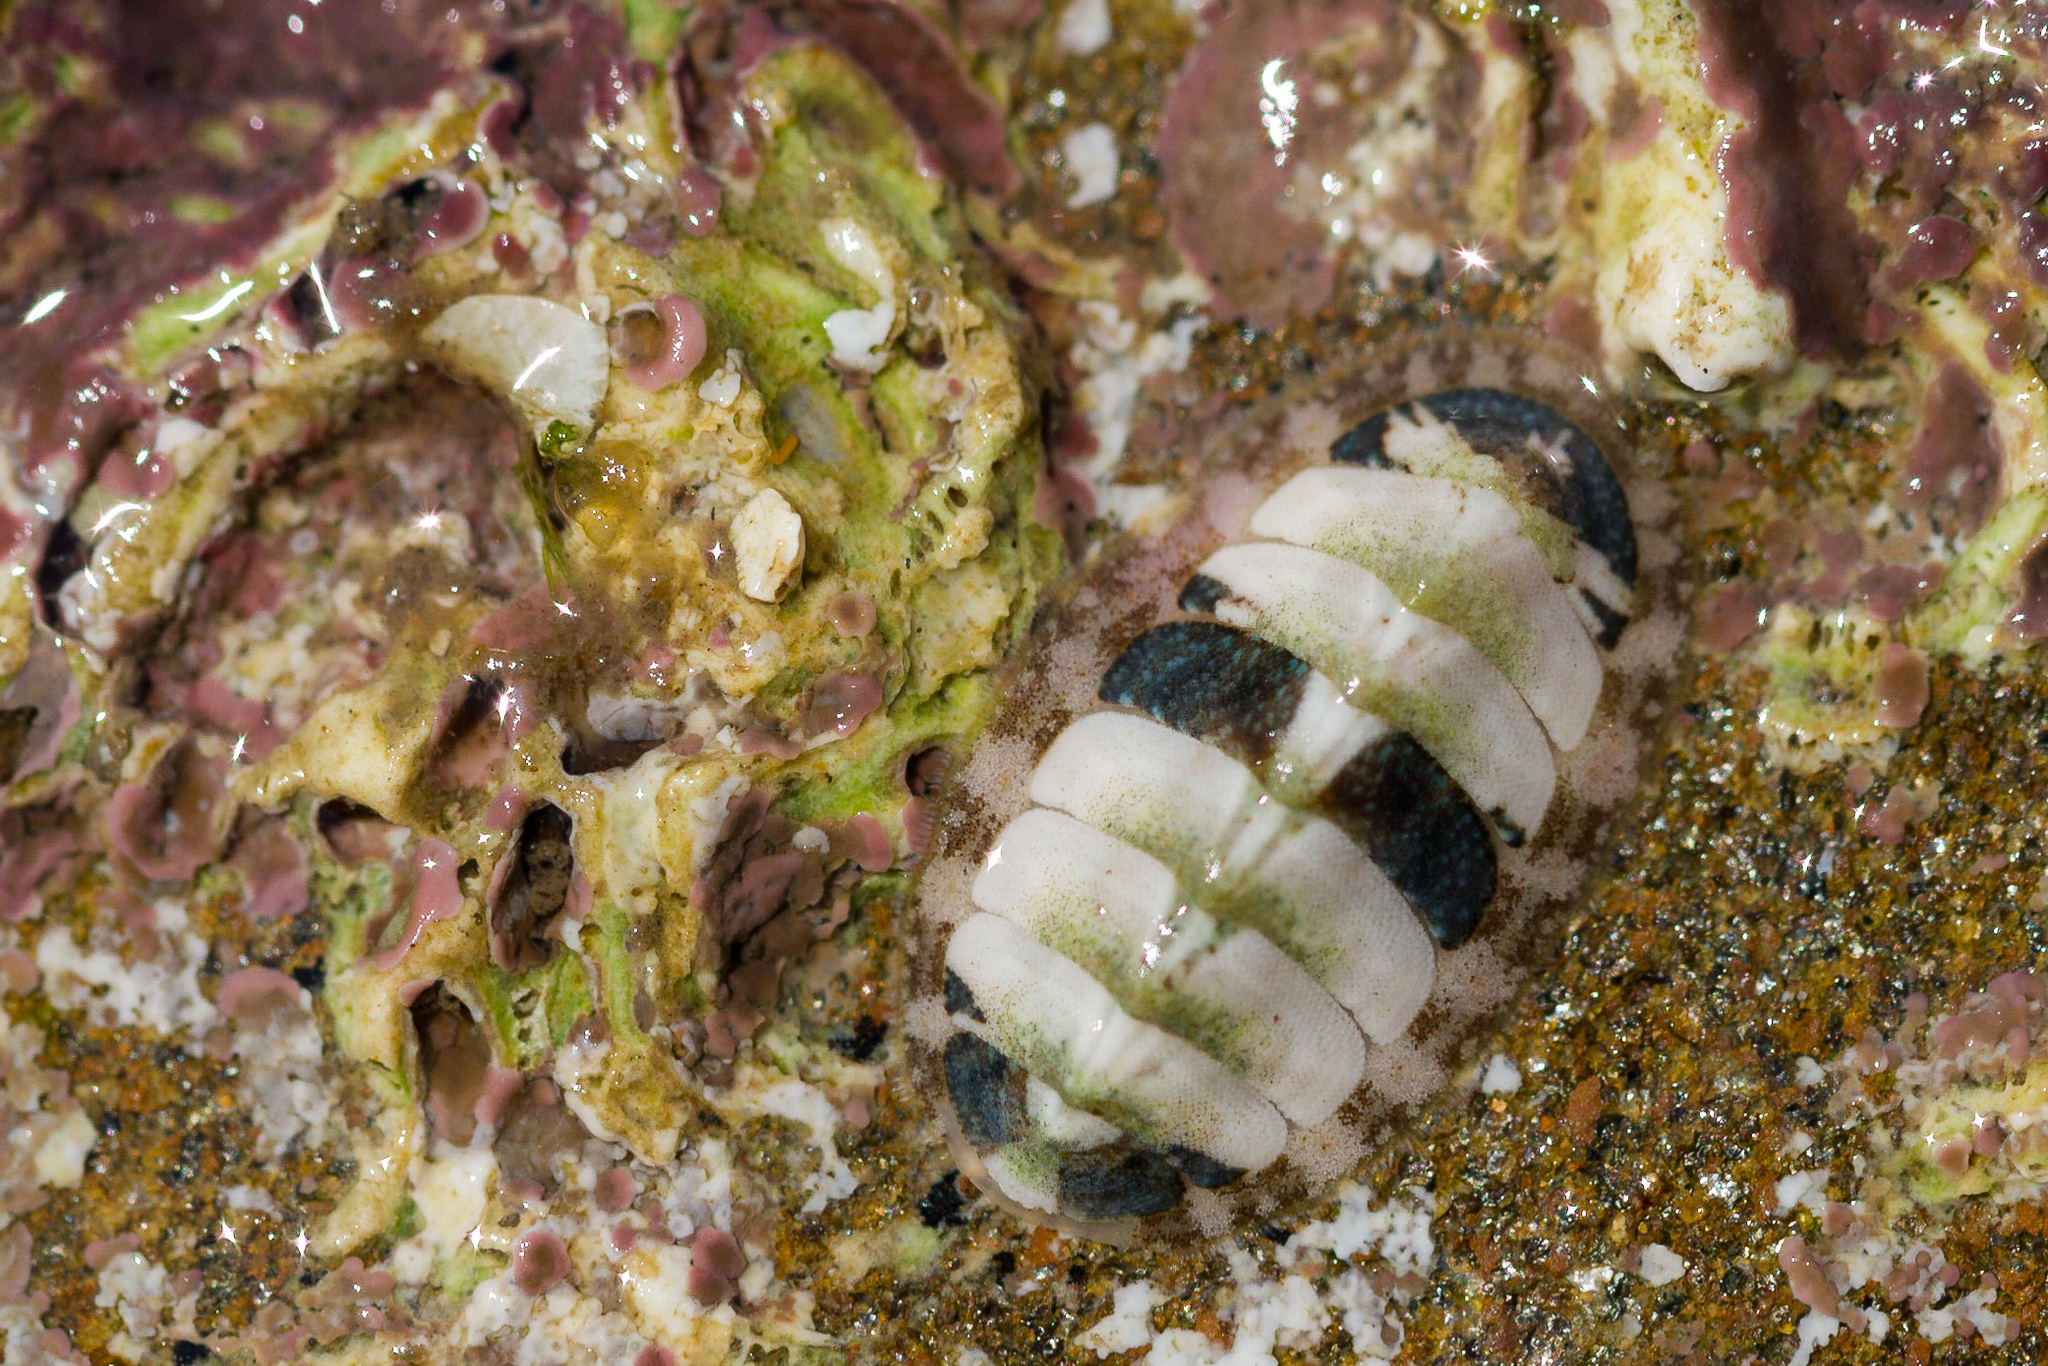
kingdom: Animalia
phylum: Mollusca
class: Polyplacophora
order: Chitonida
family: Tonicellidae
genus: Lepidochitona
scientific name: Lepidochitona cinerea
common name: Cinereous chiton
